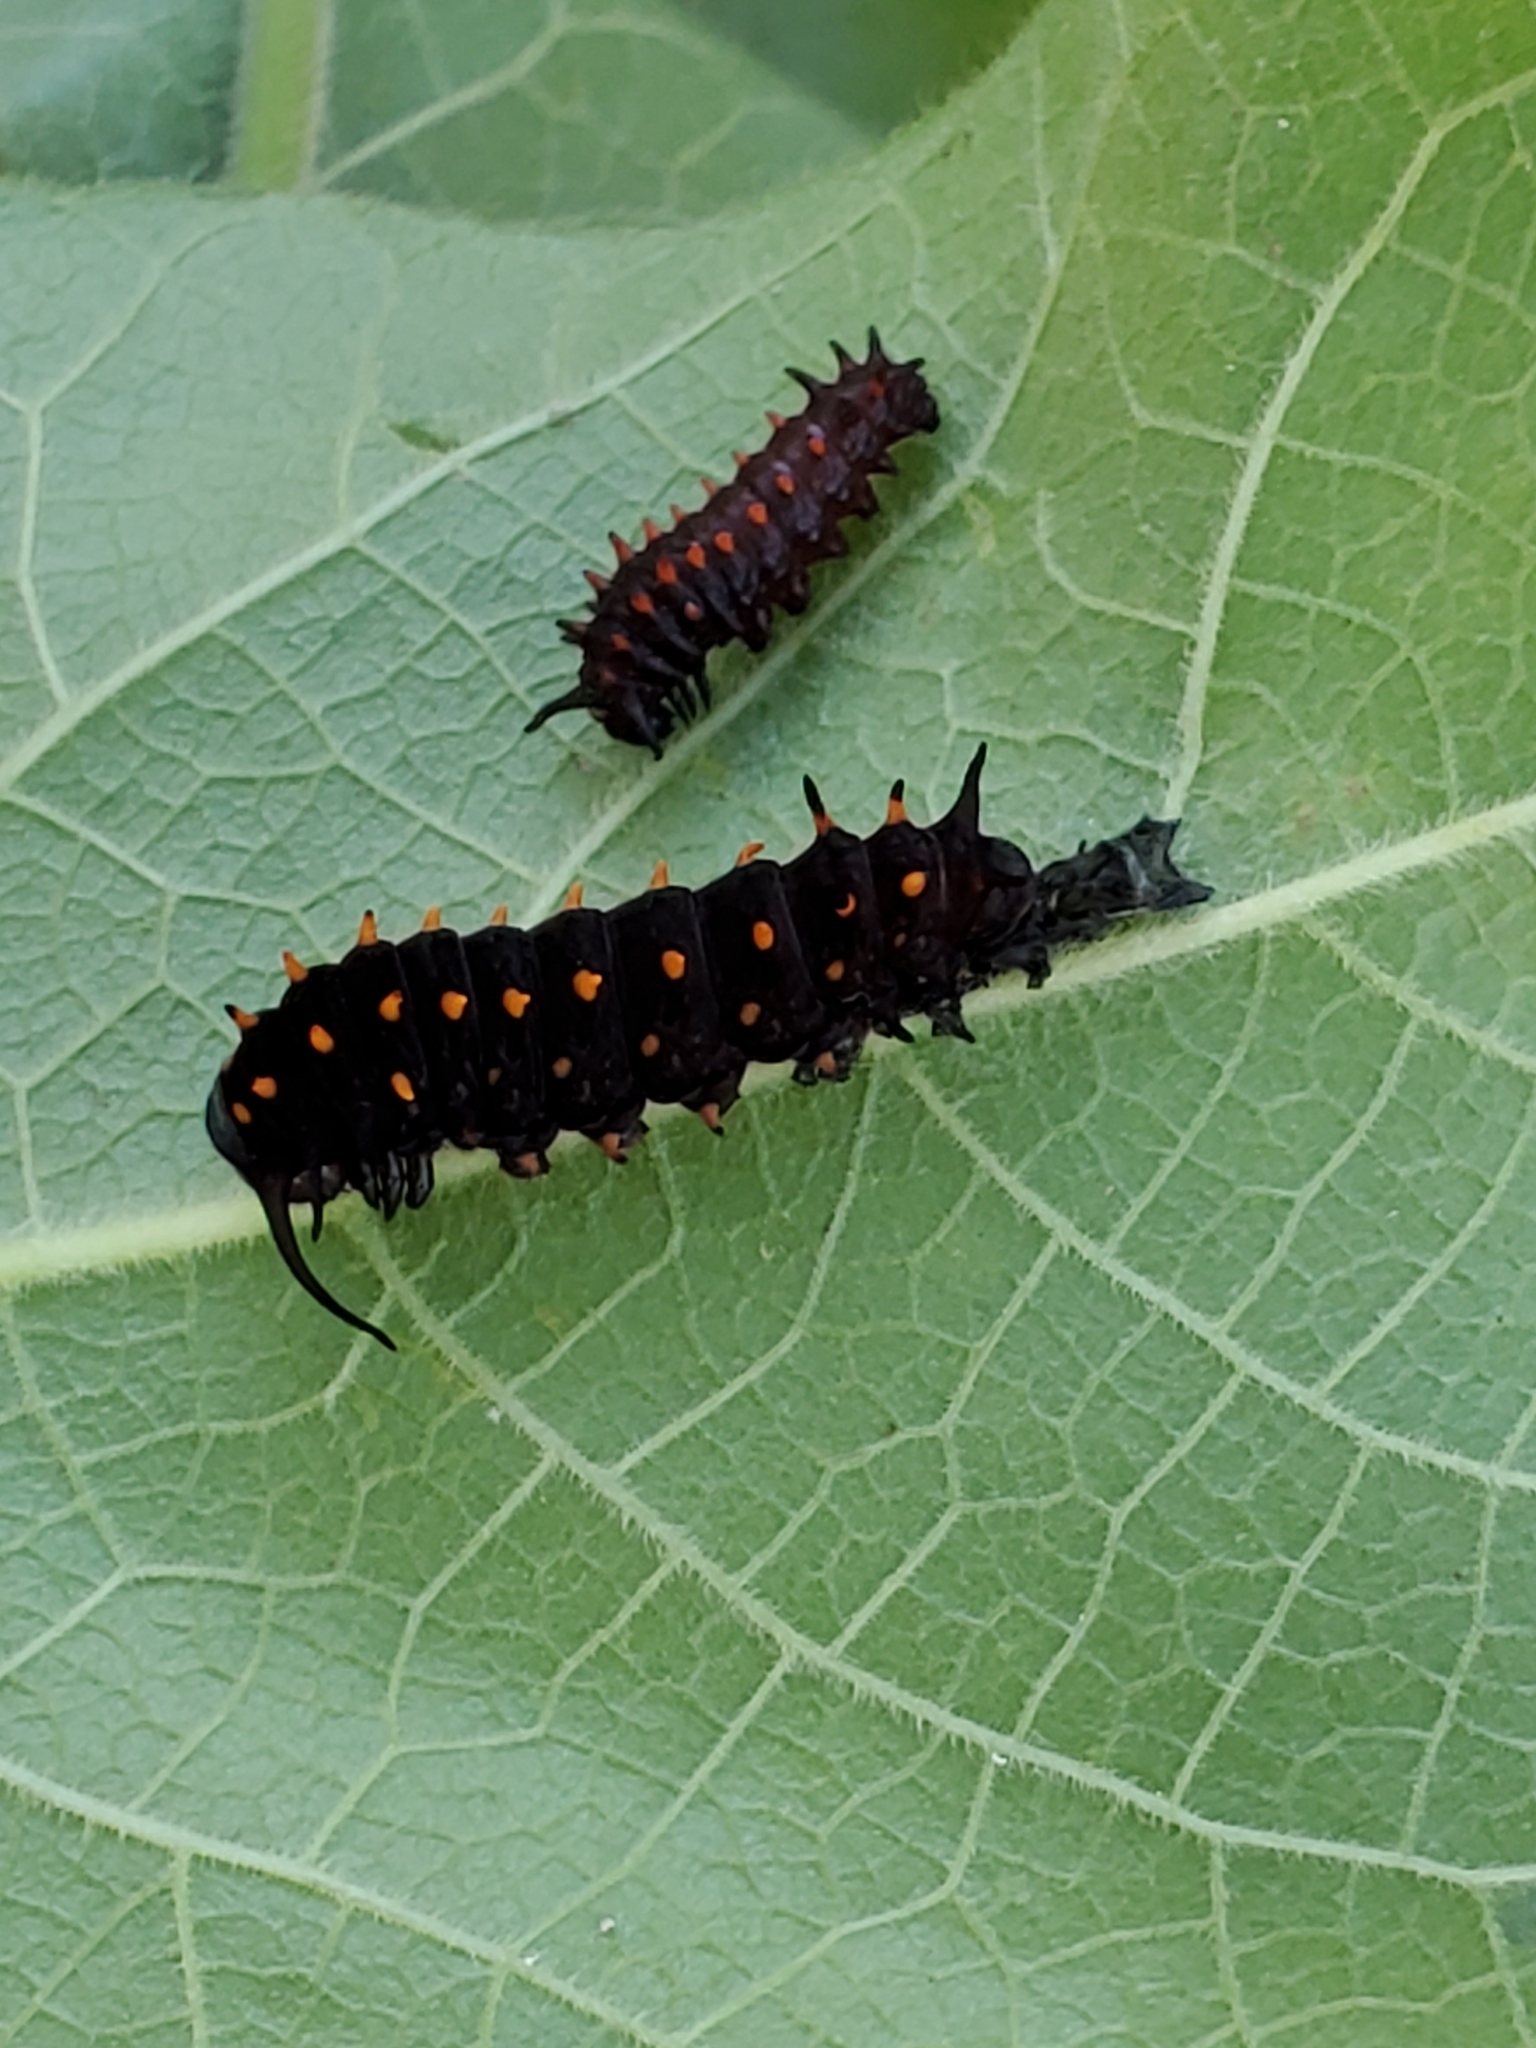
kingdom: Animalia
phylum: Arthropoda
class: Insecta
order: Lepidoptera
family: Papilionidae
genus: Battus
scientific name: Battus philenor
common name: Pipevine swallowtail
